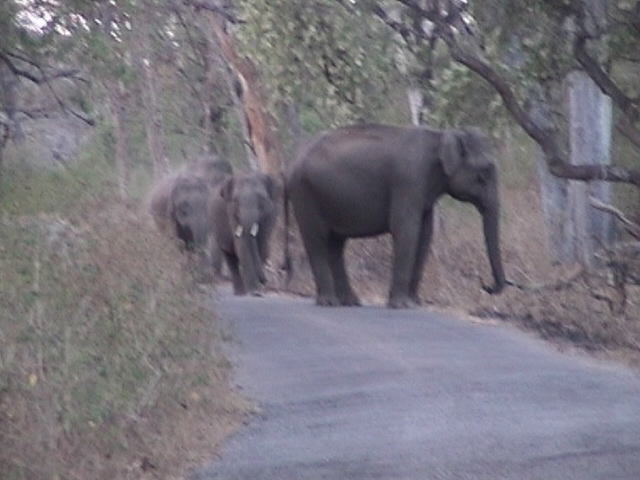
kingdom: Animalia
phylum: Chordata
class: Mammalia
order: Proboscidea
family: Elephantidae
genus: Elephas
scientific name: Elephas maximus
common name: Asian elephant
